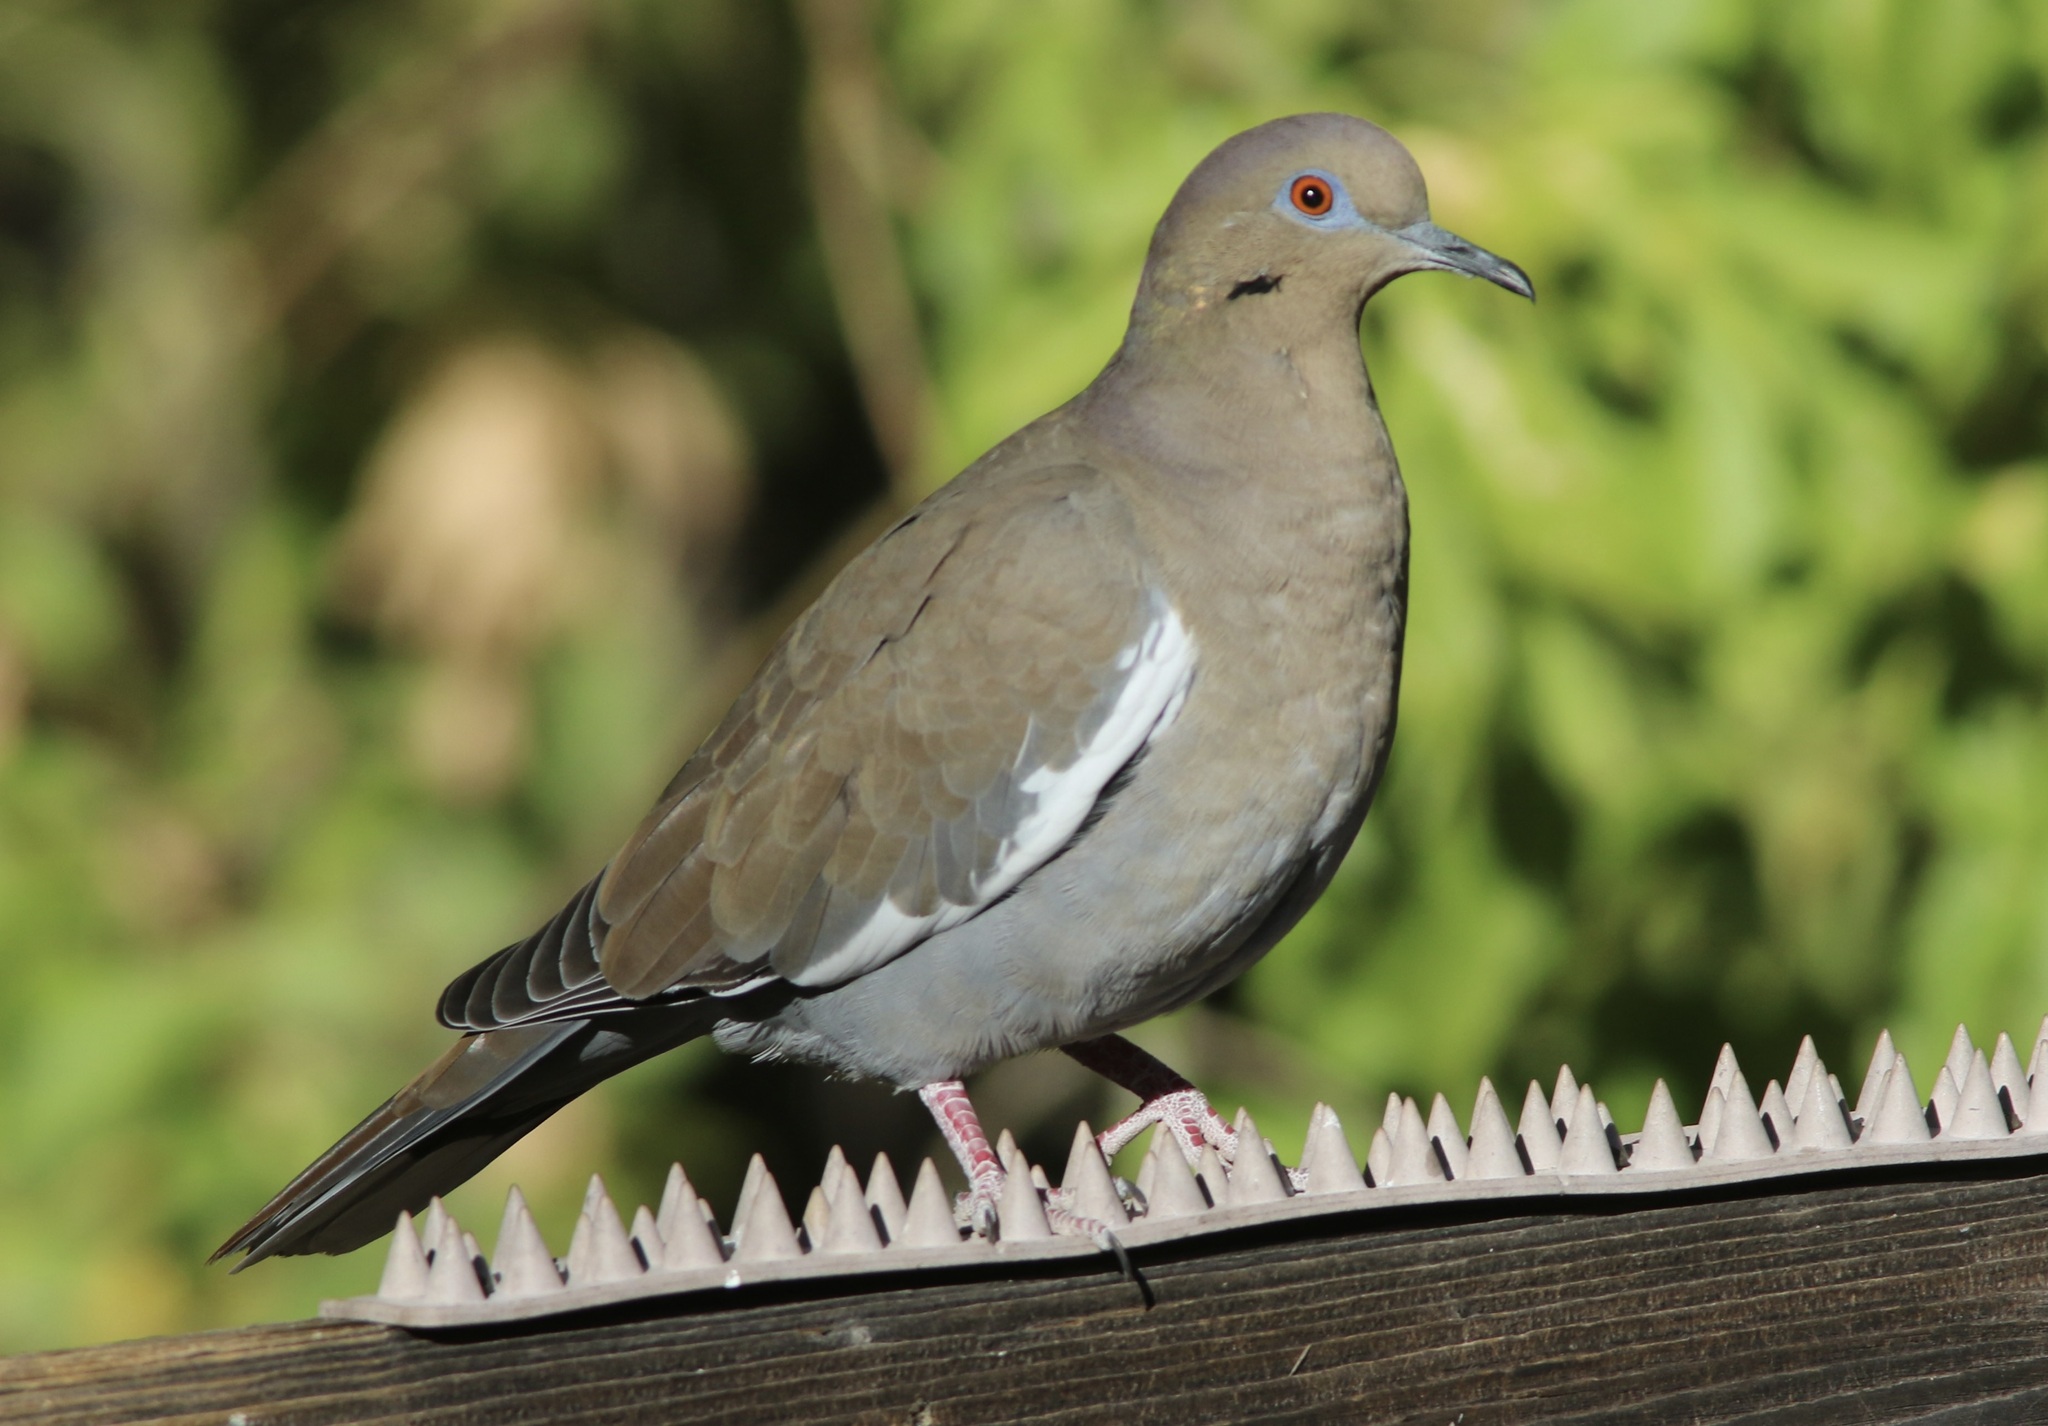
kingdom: Animalia
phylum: Chordata
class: Aves
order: Columbiformes
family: Columbidae
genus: Zenaida
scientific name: Zenaida asiatica
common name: White-winged dove
